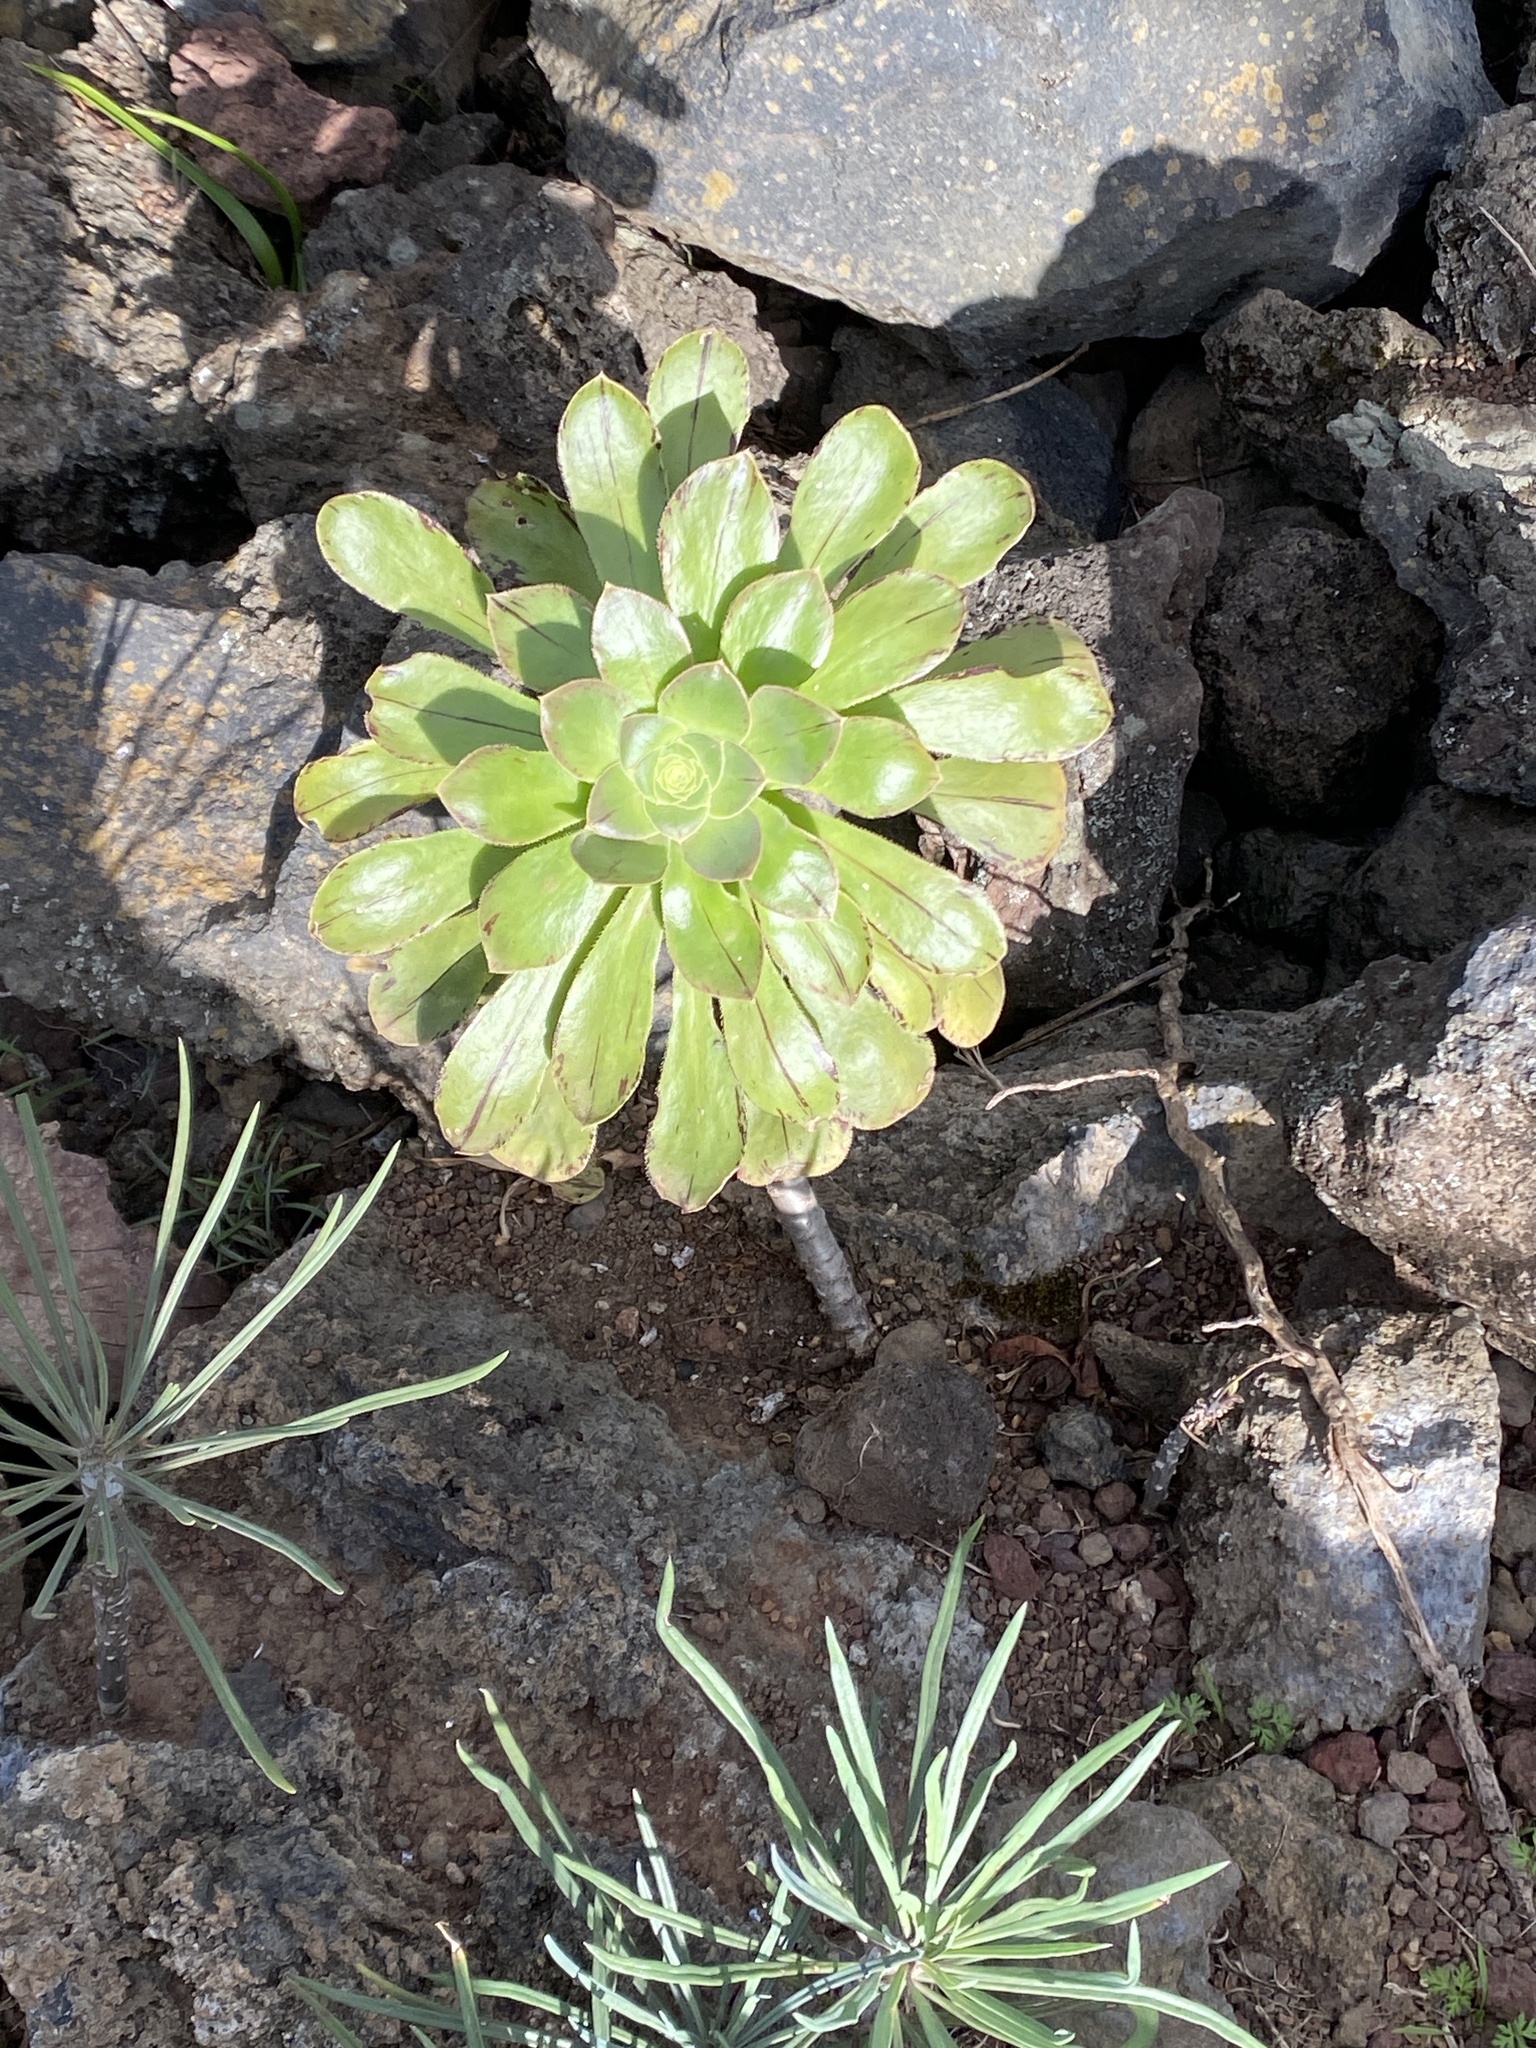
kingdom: Plantae
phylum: Tracheophyta
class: Magnoliopsida
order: Saxifragales
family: Crassulaceae
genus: Aeonium
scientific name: Aeonium arboreum
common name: Tree aeonium
